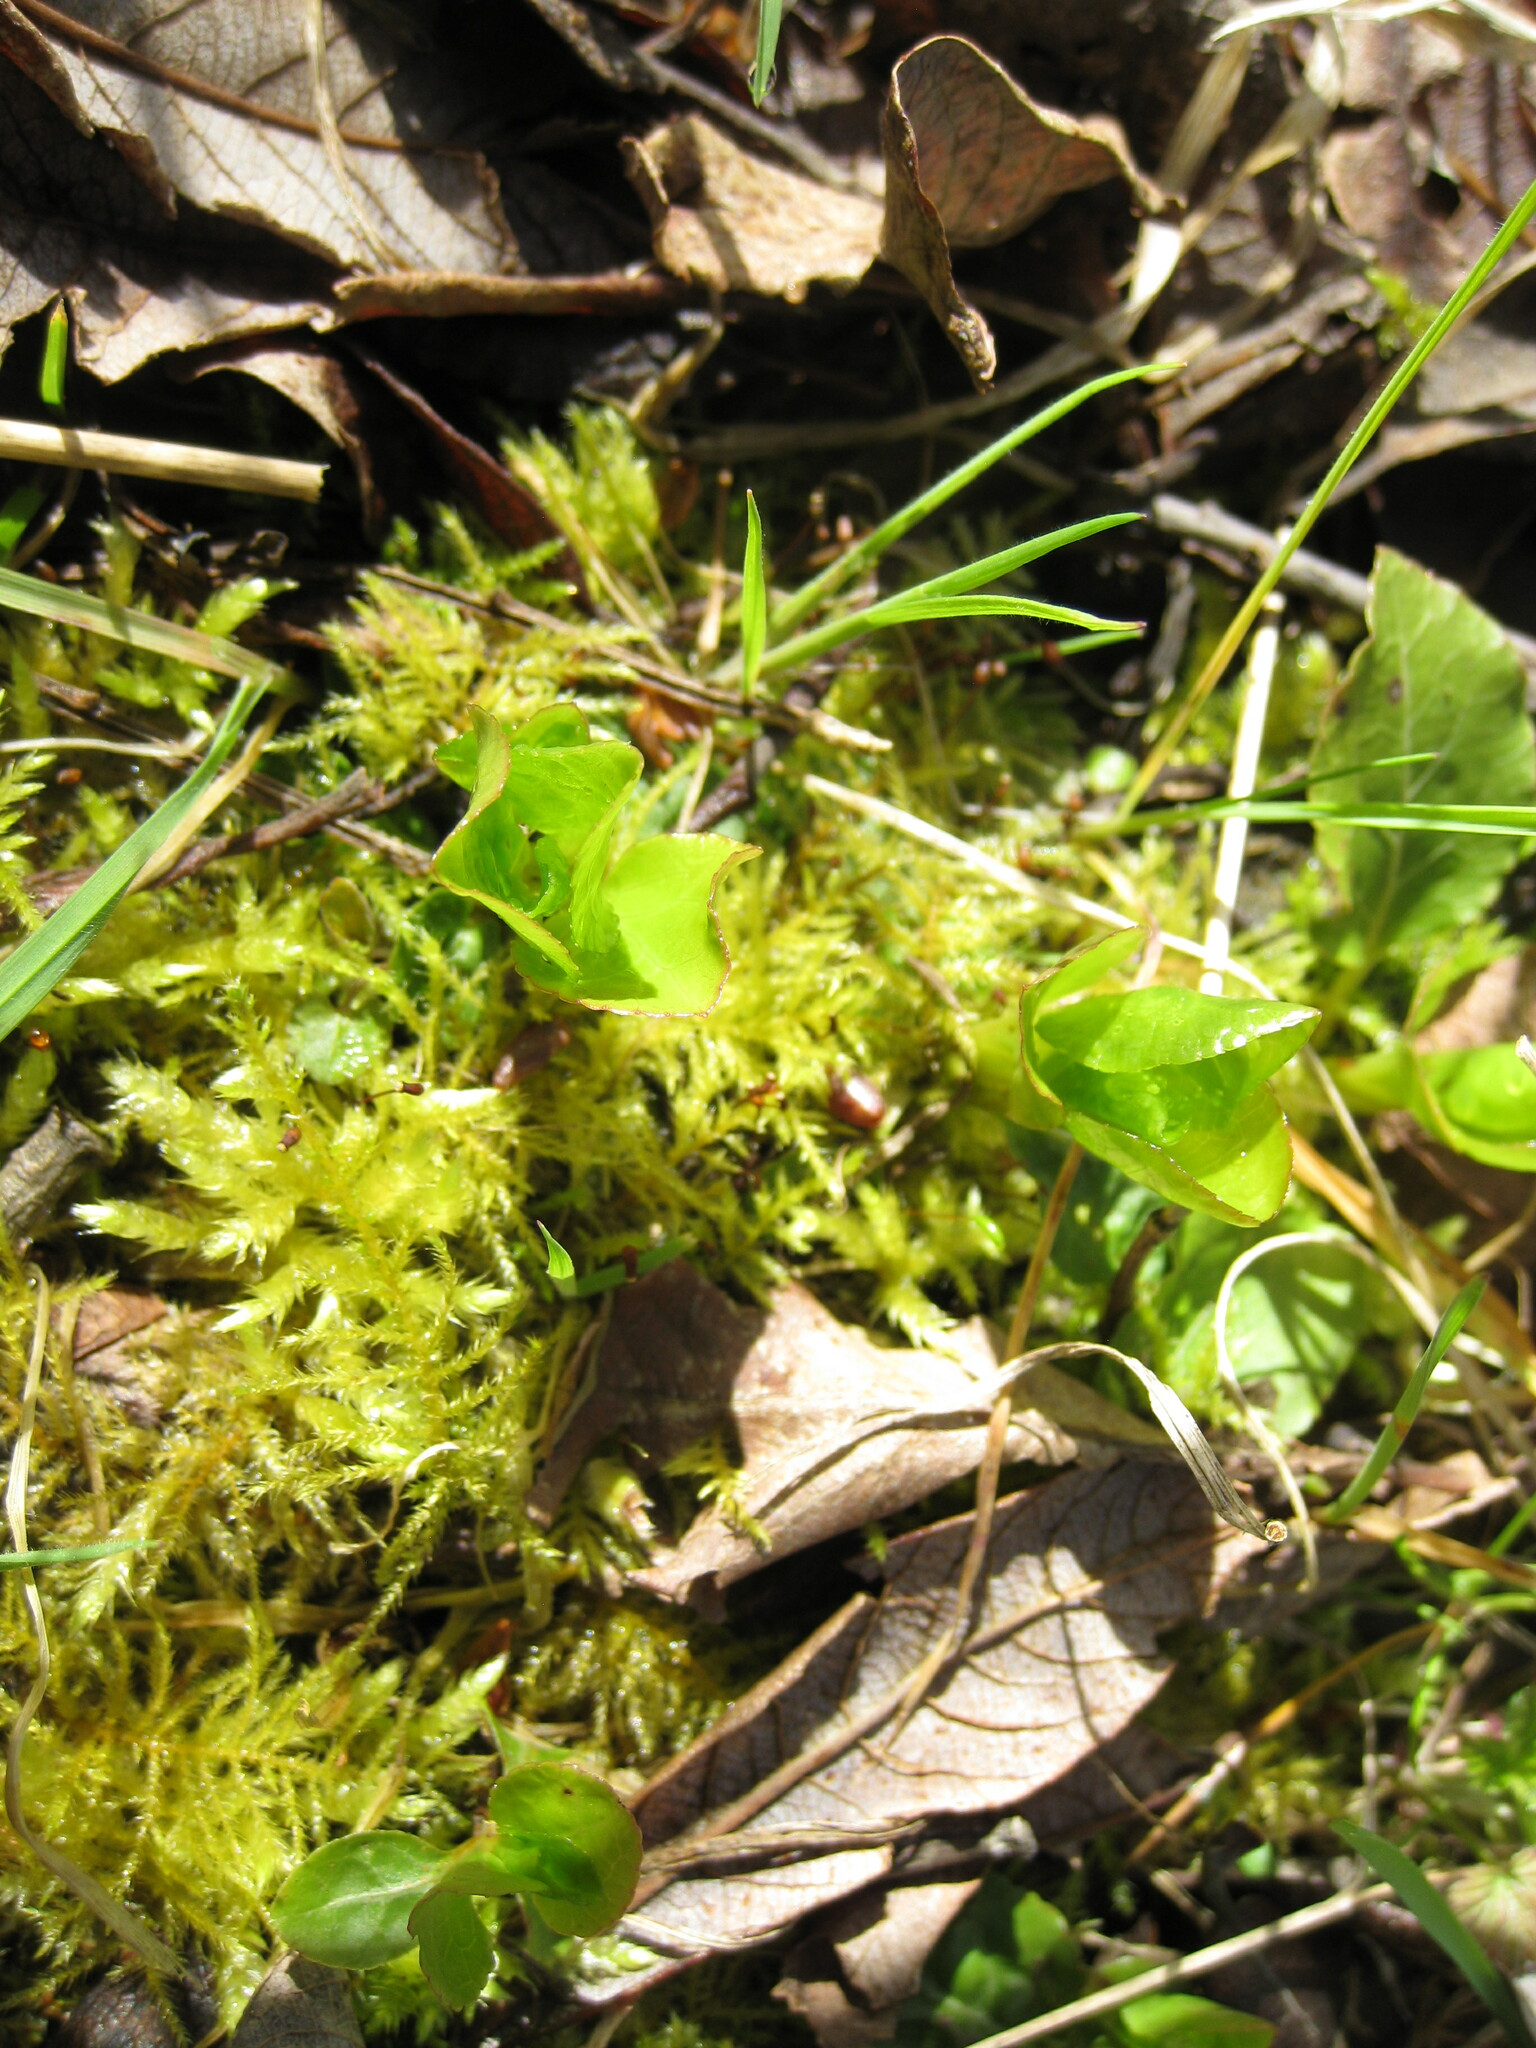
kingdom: Plantae
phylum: Tracheophyta
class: Magnoliopsida
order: Ericales
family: Ericaceae
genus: Pyrola
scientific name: Pyrola minor
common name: Common wintergreen
